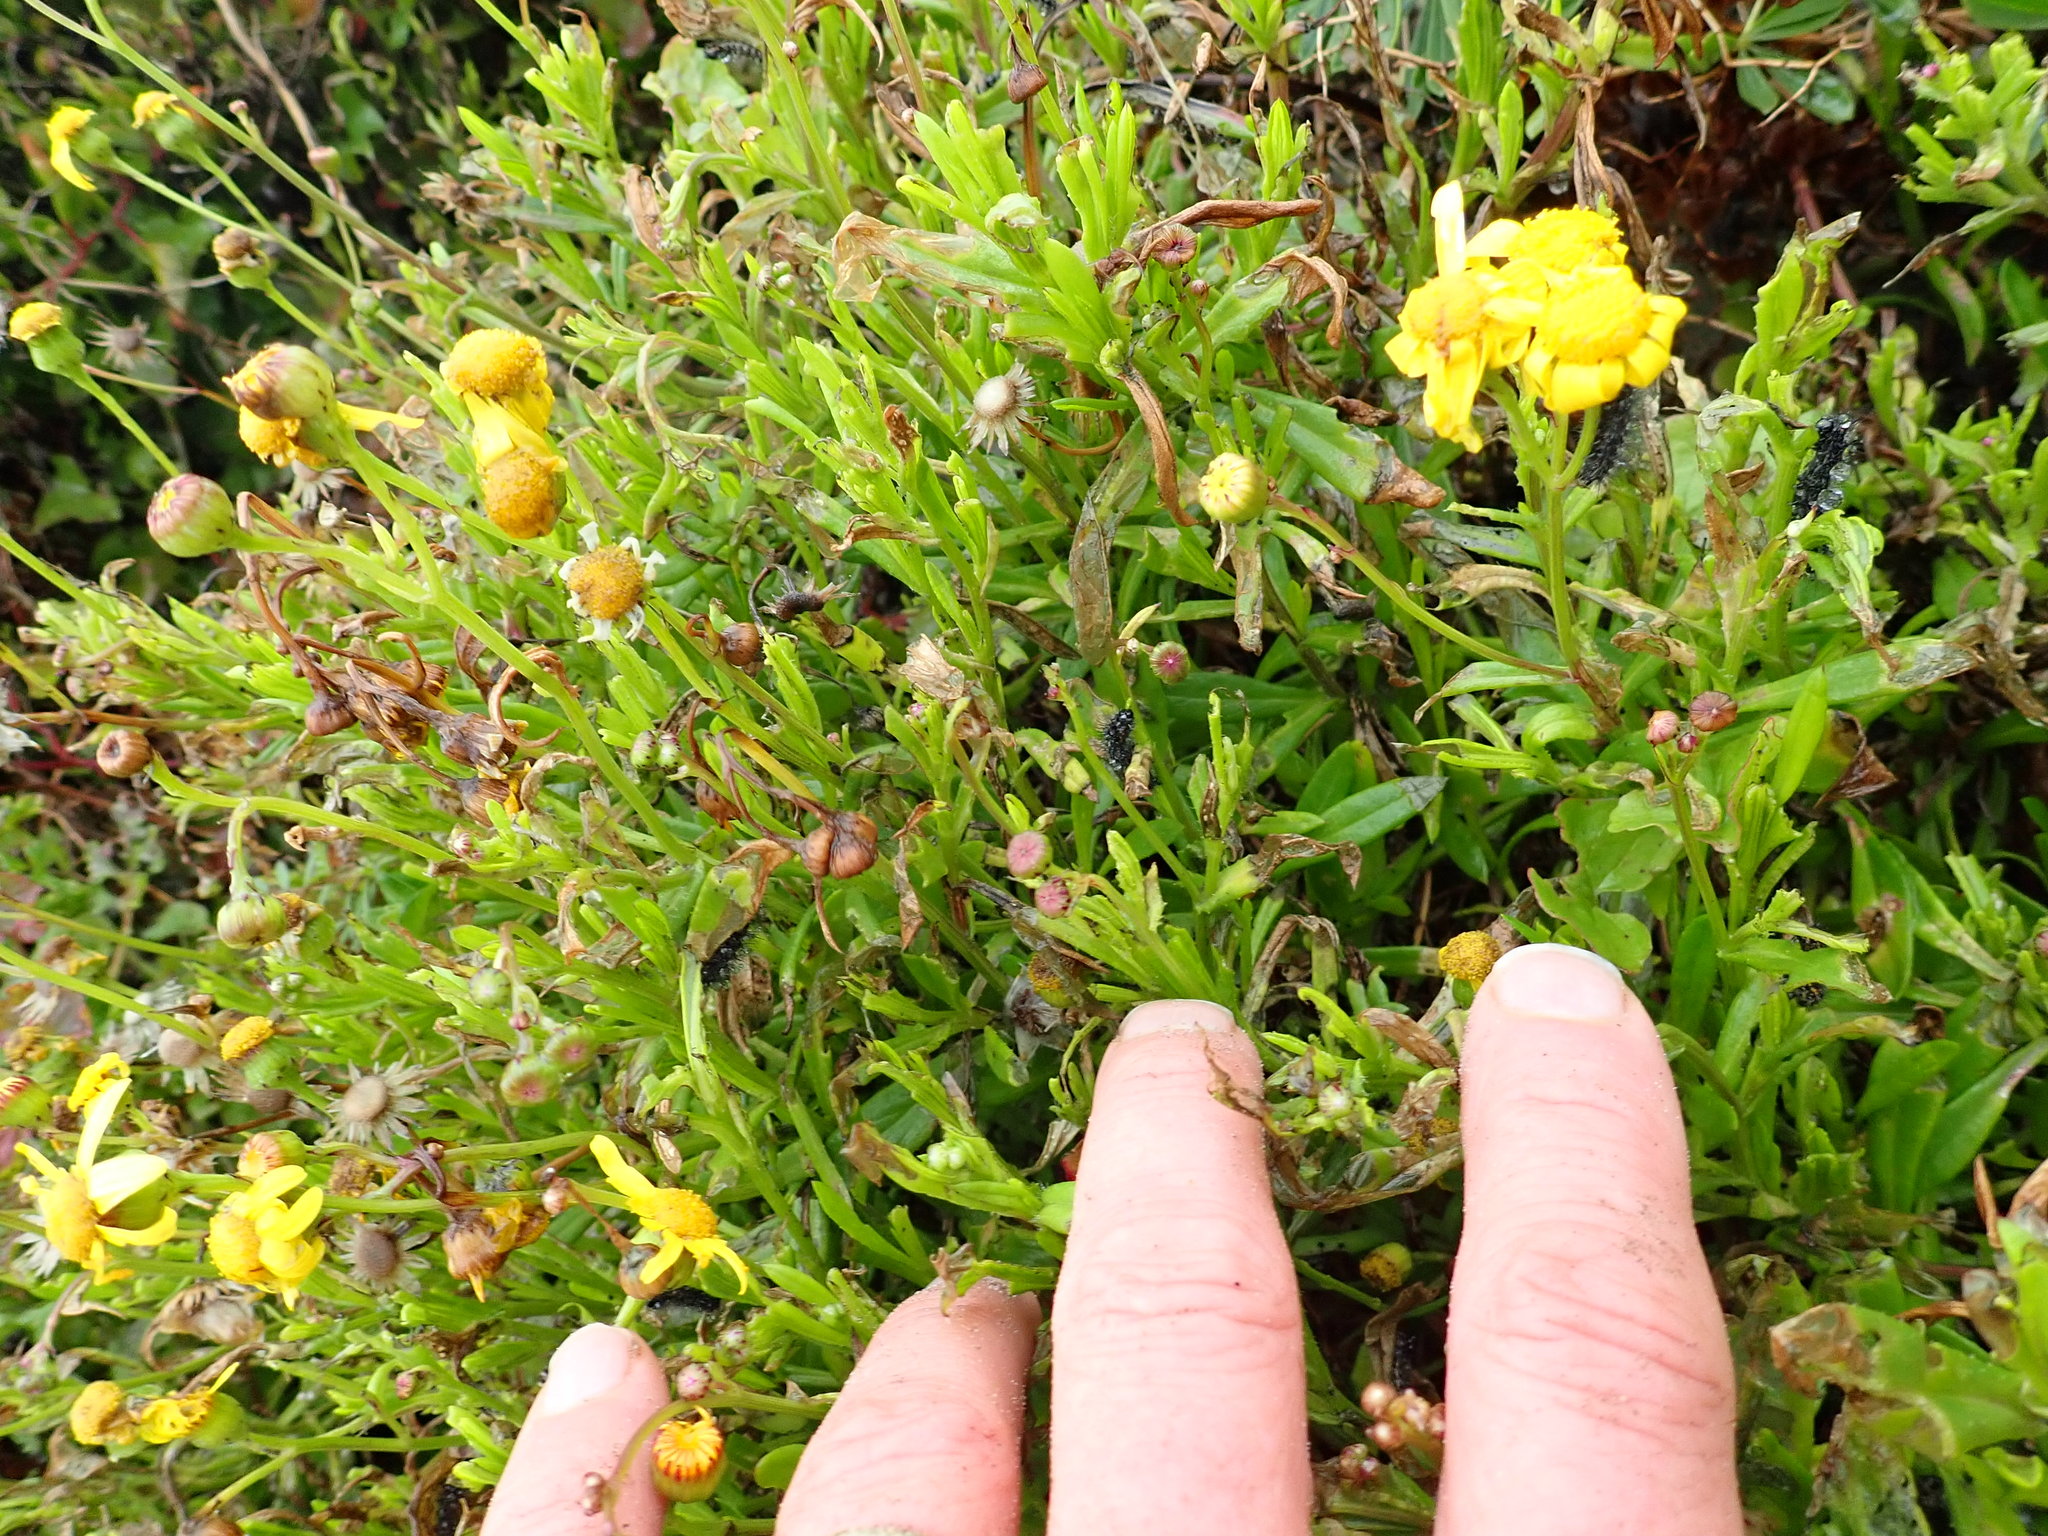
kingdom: Plantae
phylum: Tracheophyta
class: Magnoliopsida
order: Asterales
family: Asteraceae
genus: Senecio
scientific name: Senecio skirrhodon
